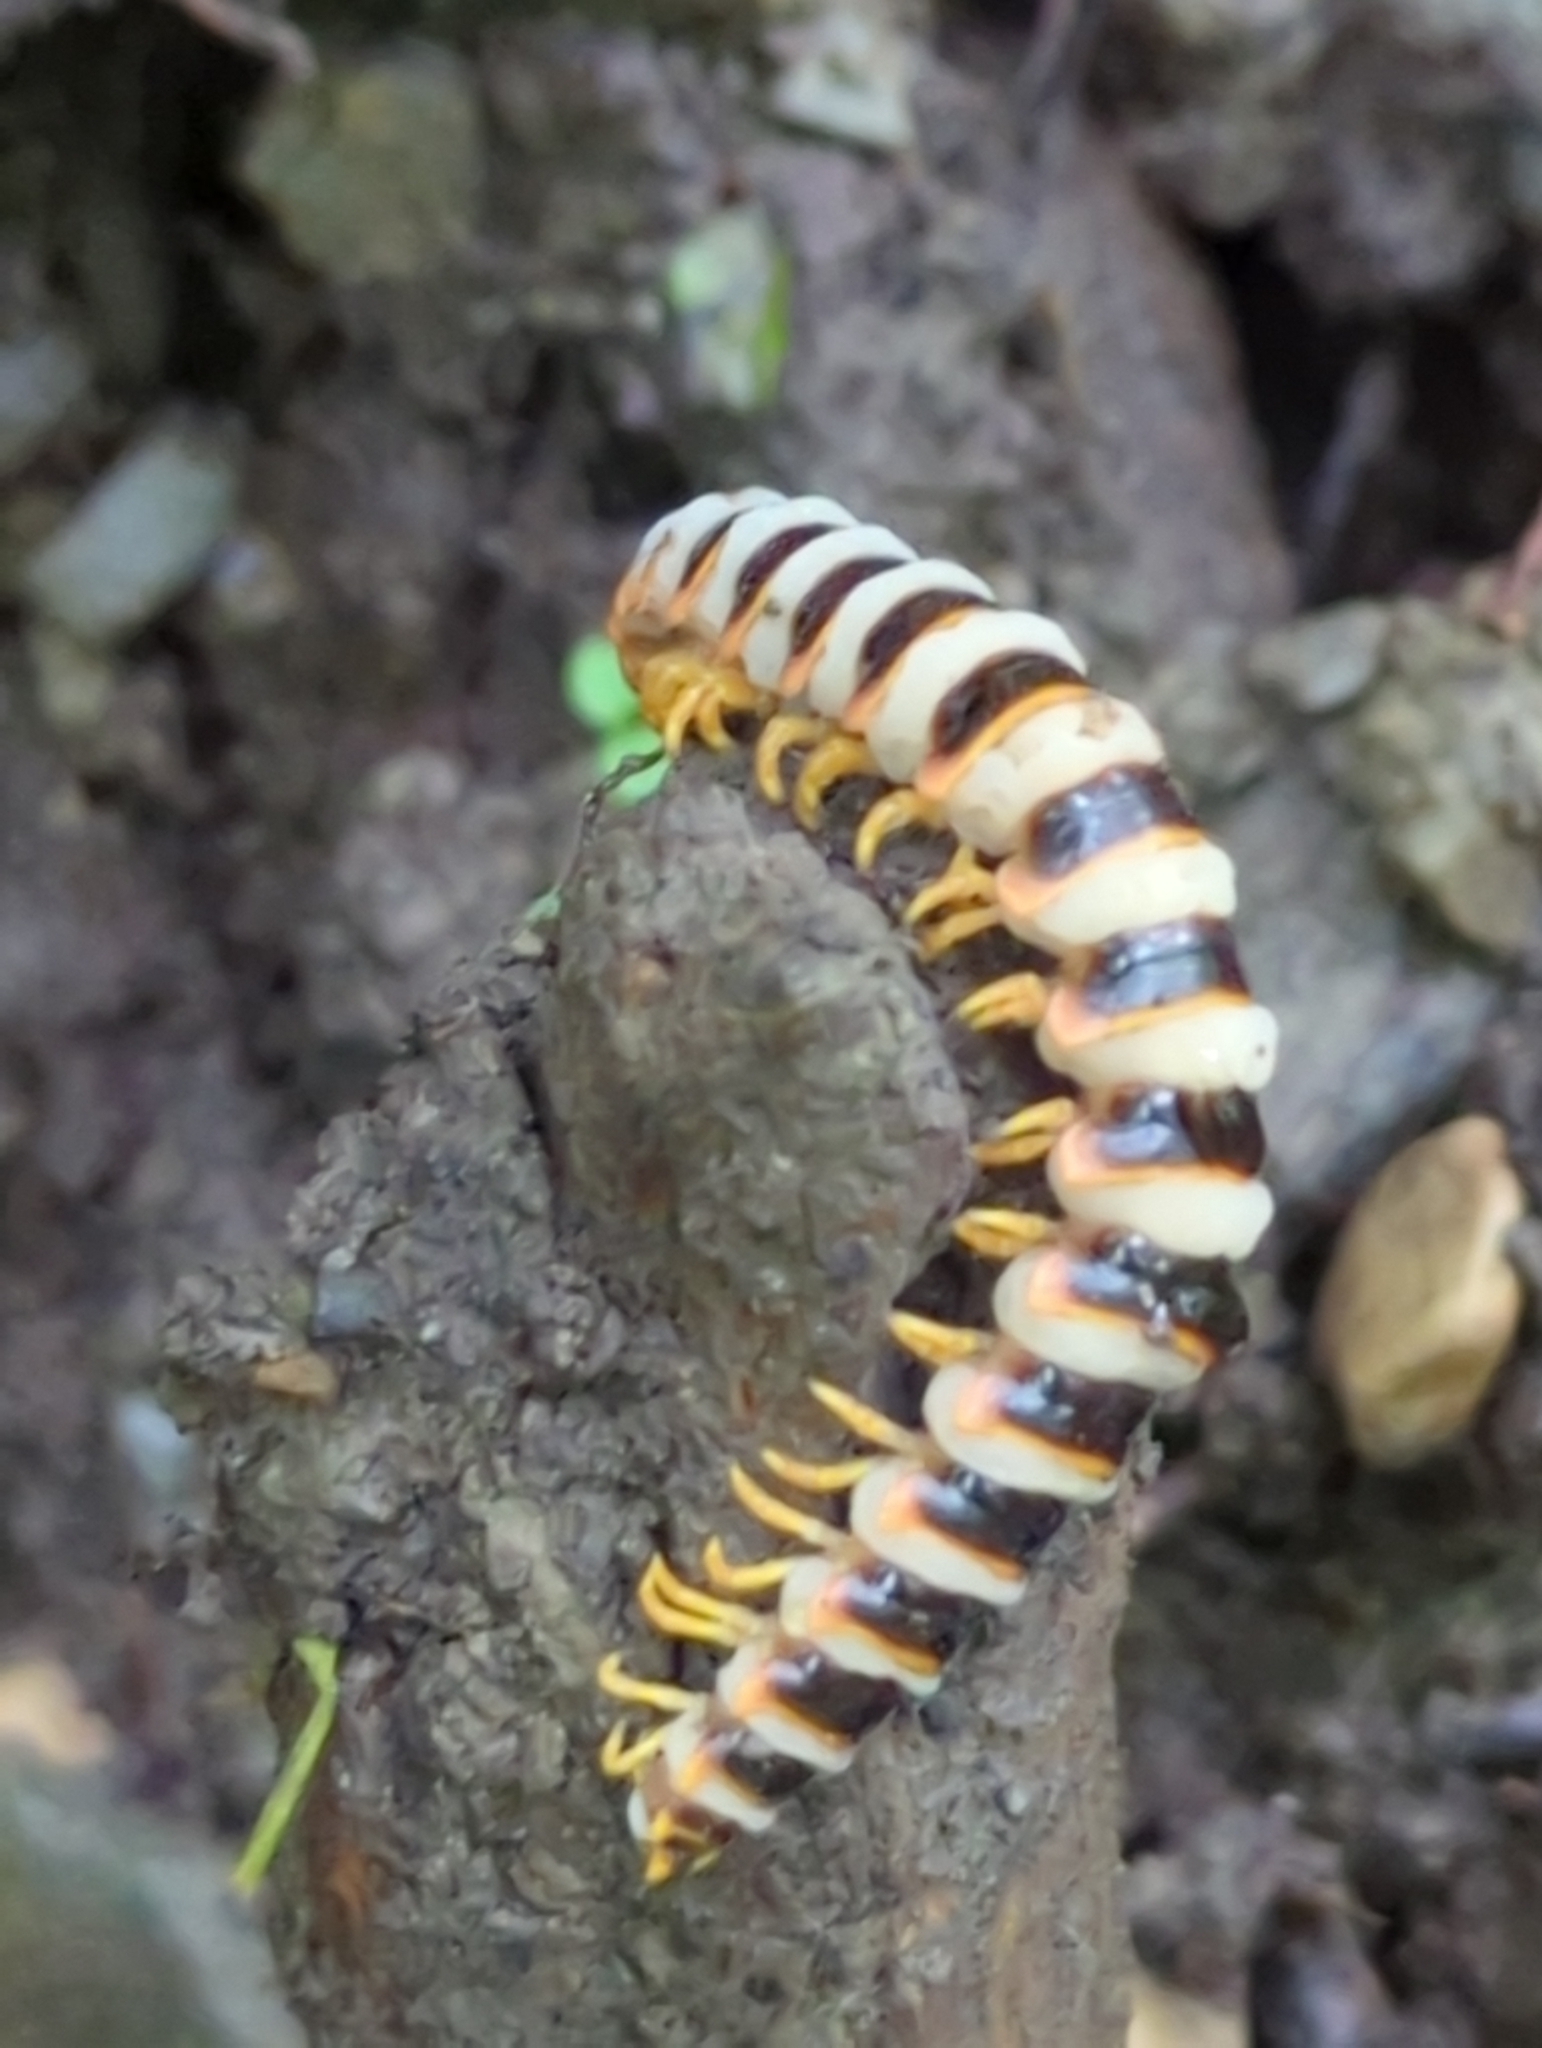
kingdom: Fungi
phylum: Entomophthoromycota
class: Entomophthoromycetes
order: Entomophthorales
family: Entomophthoraceae
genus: Arthrophaga
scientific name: Arthrophaga myriapodina
